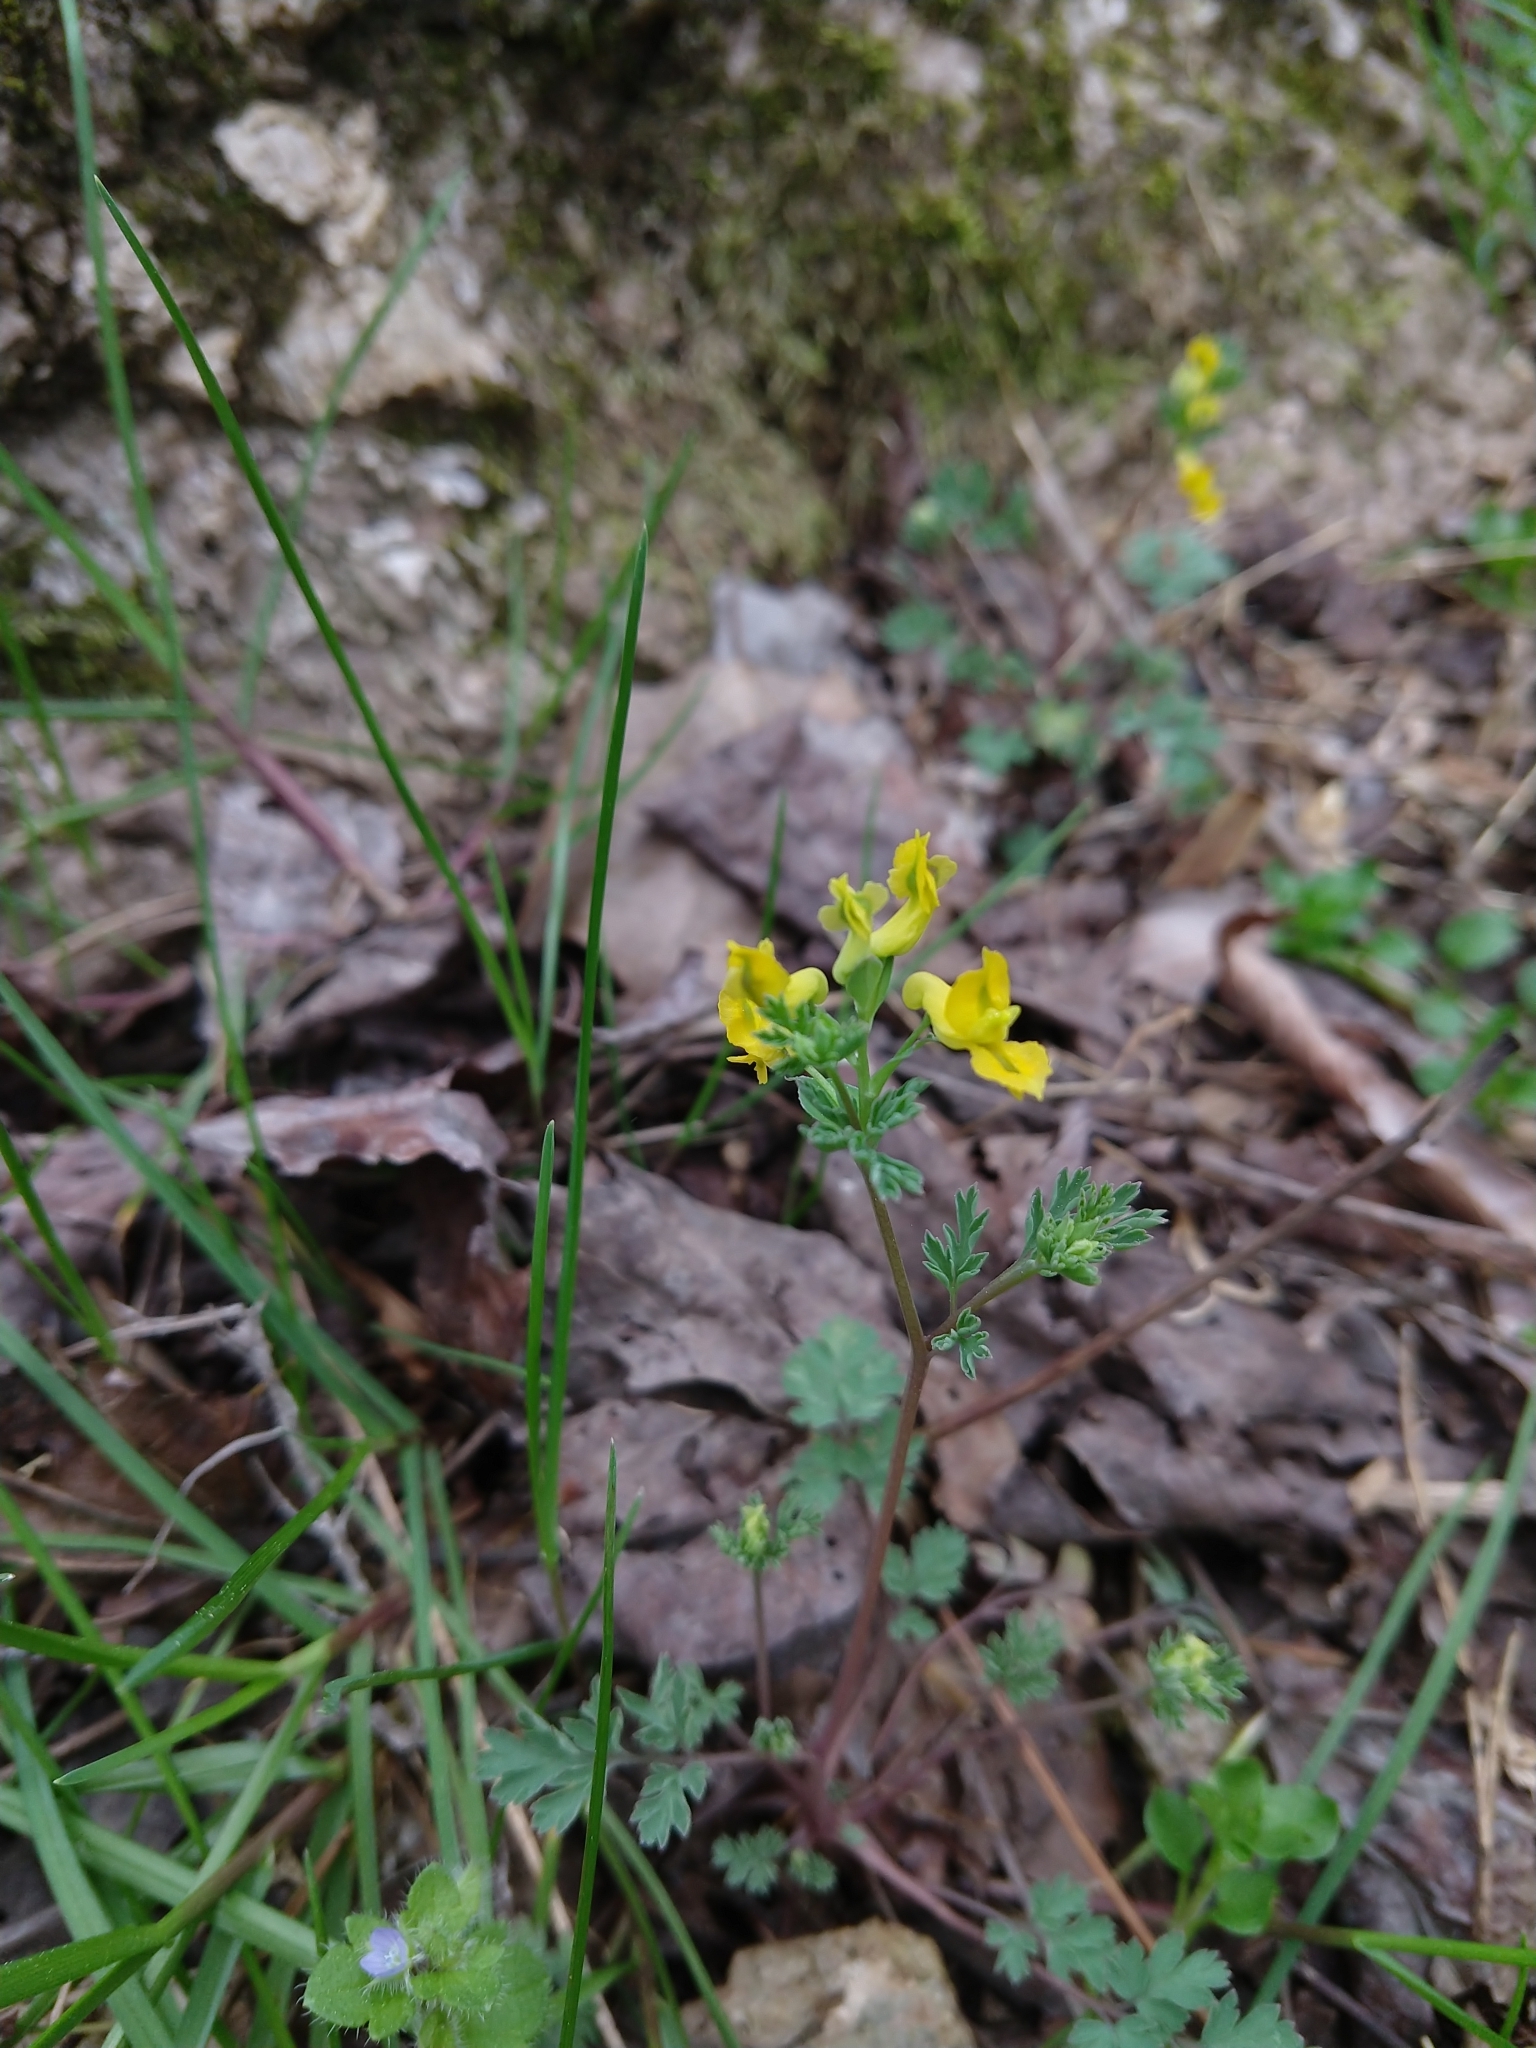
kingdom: Plantae
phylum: Tracheophyta
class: Magnoliopsida
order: Ranunculales
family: Papaveraceae
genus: Corydalis
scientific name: Corydalis flavula
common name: Yellow corydalis
